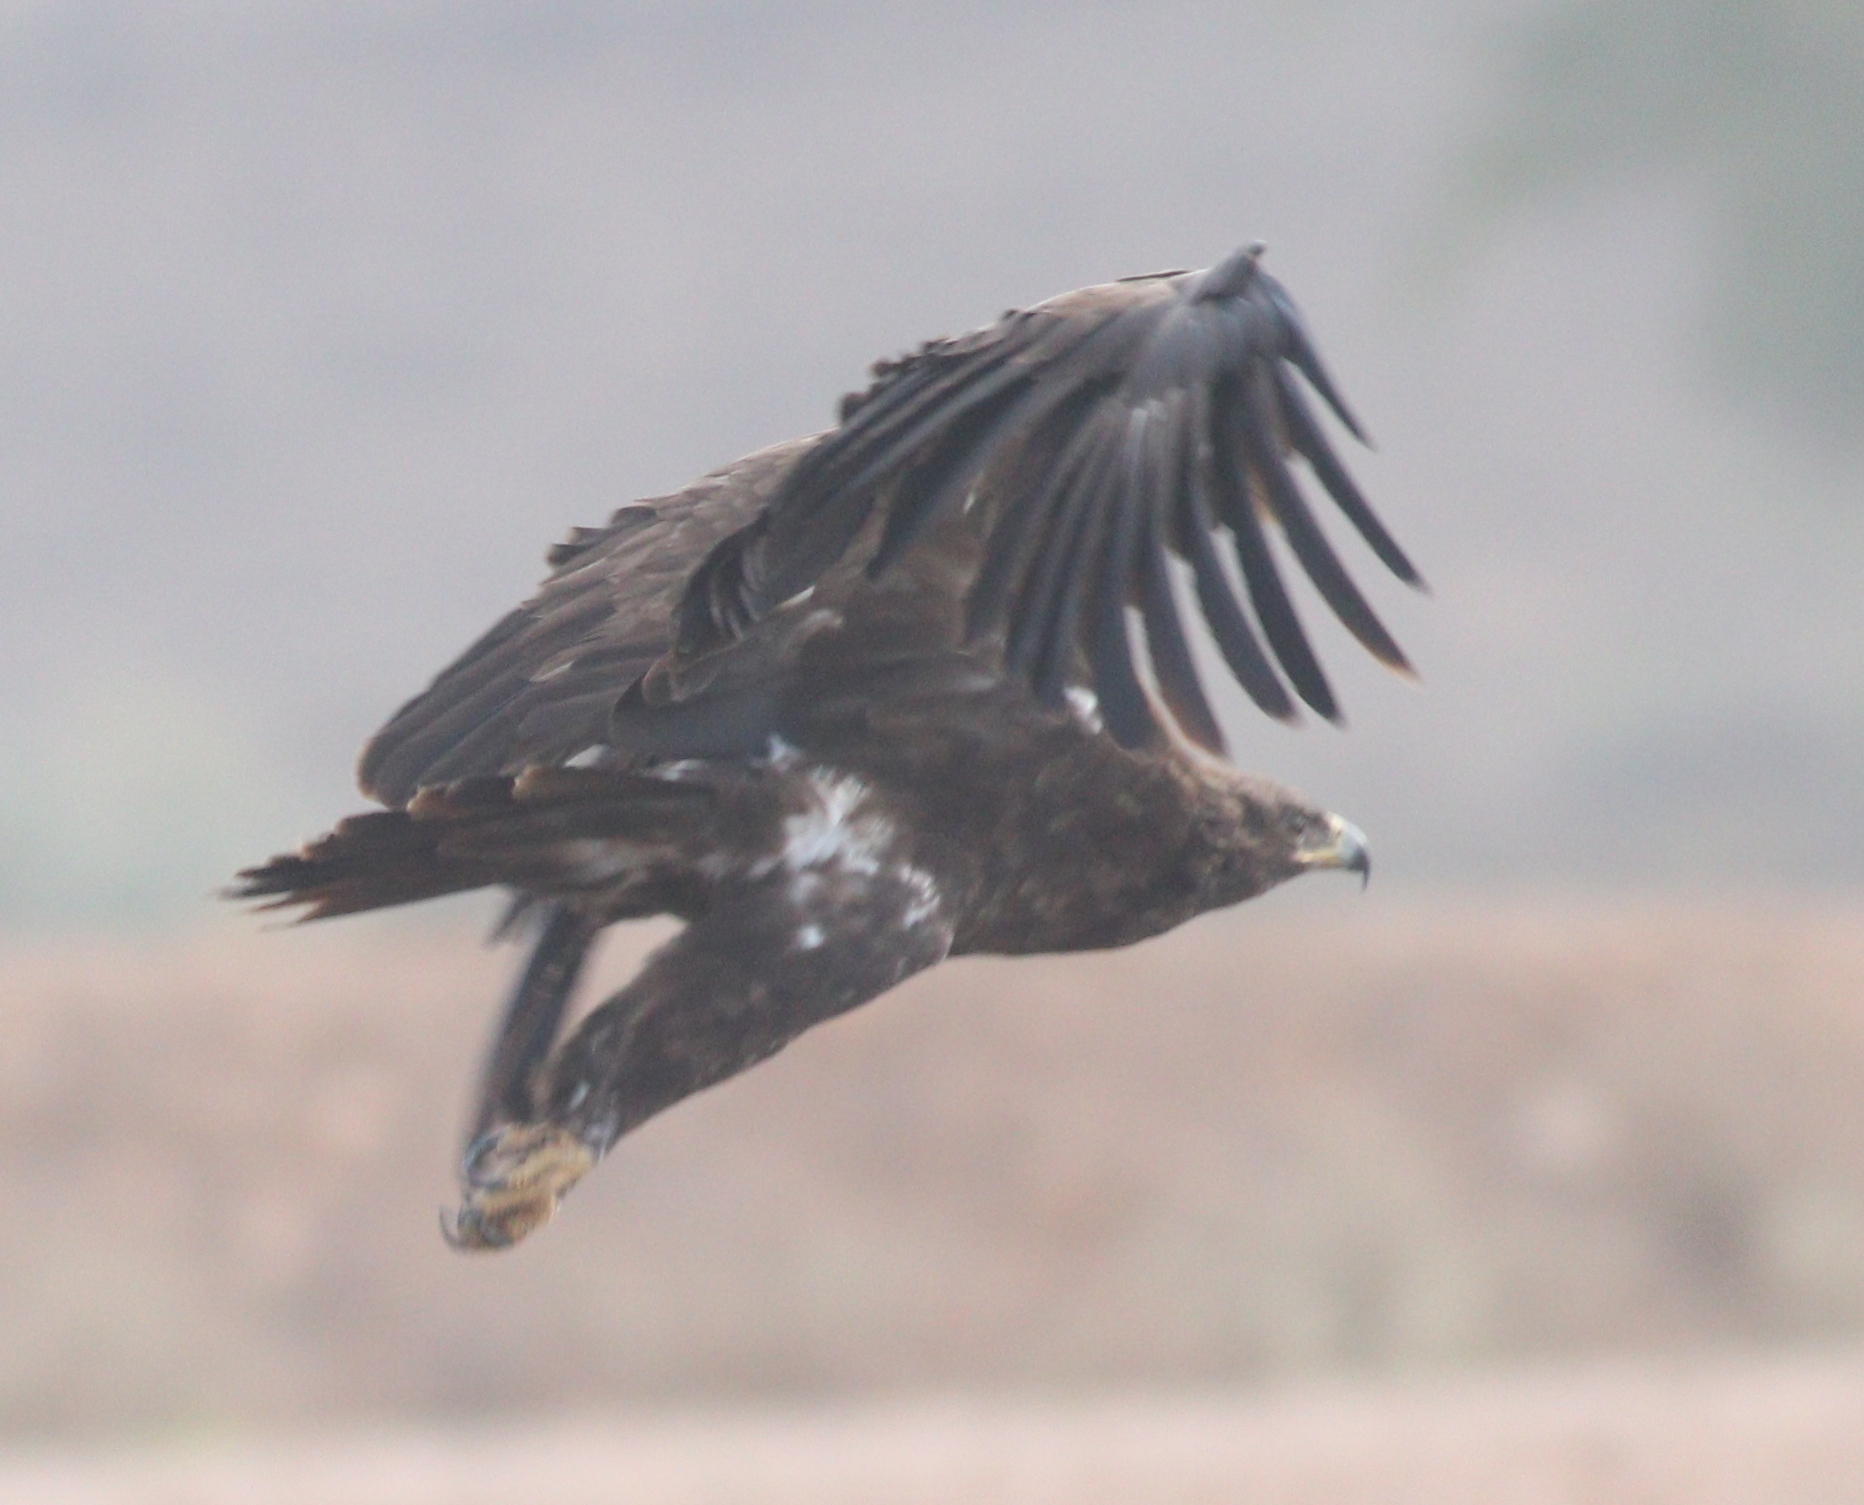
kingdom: Animalia
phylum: Chordata
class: Aves
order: Accipitriformes
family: Accipitridae
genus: Aquila
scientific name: Aquila clanga
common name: Greater spotted eagle
